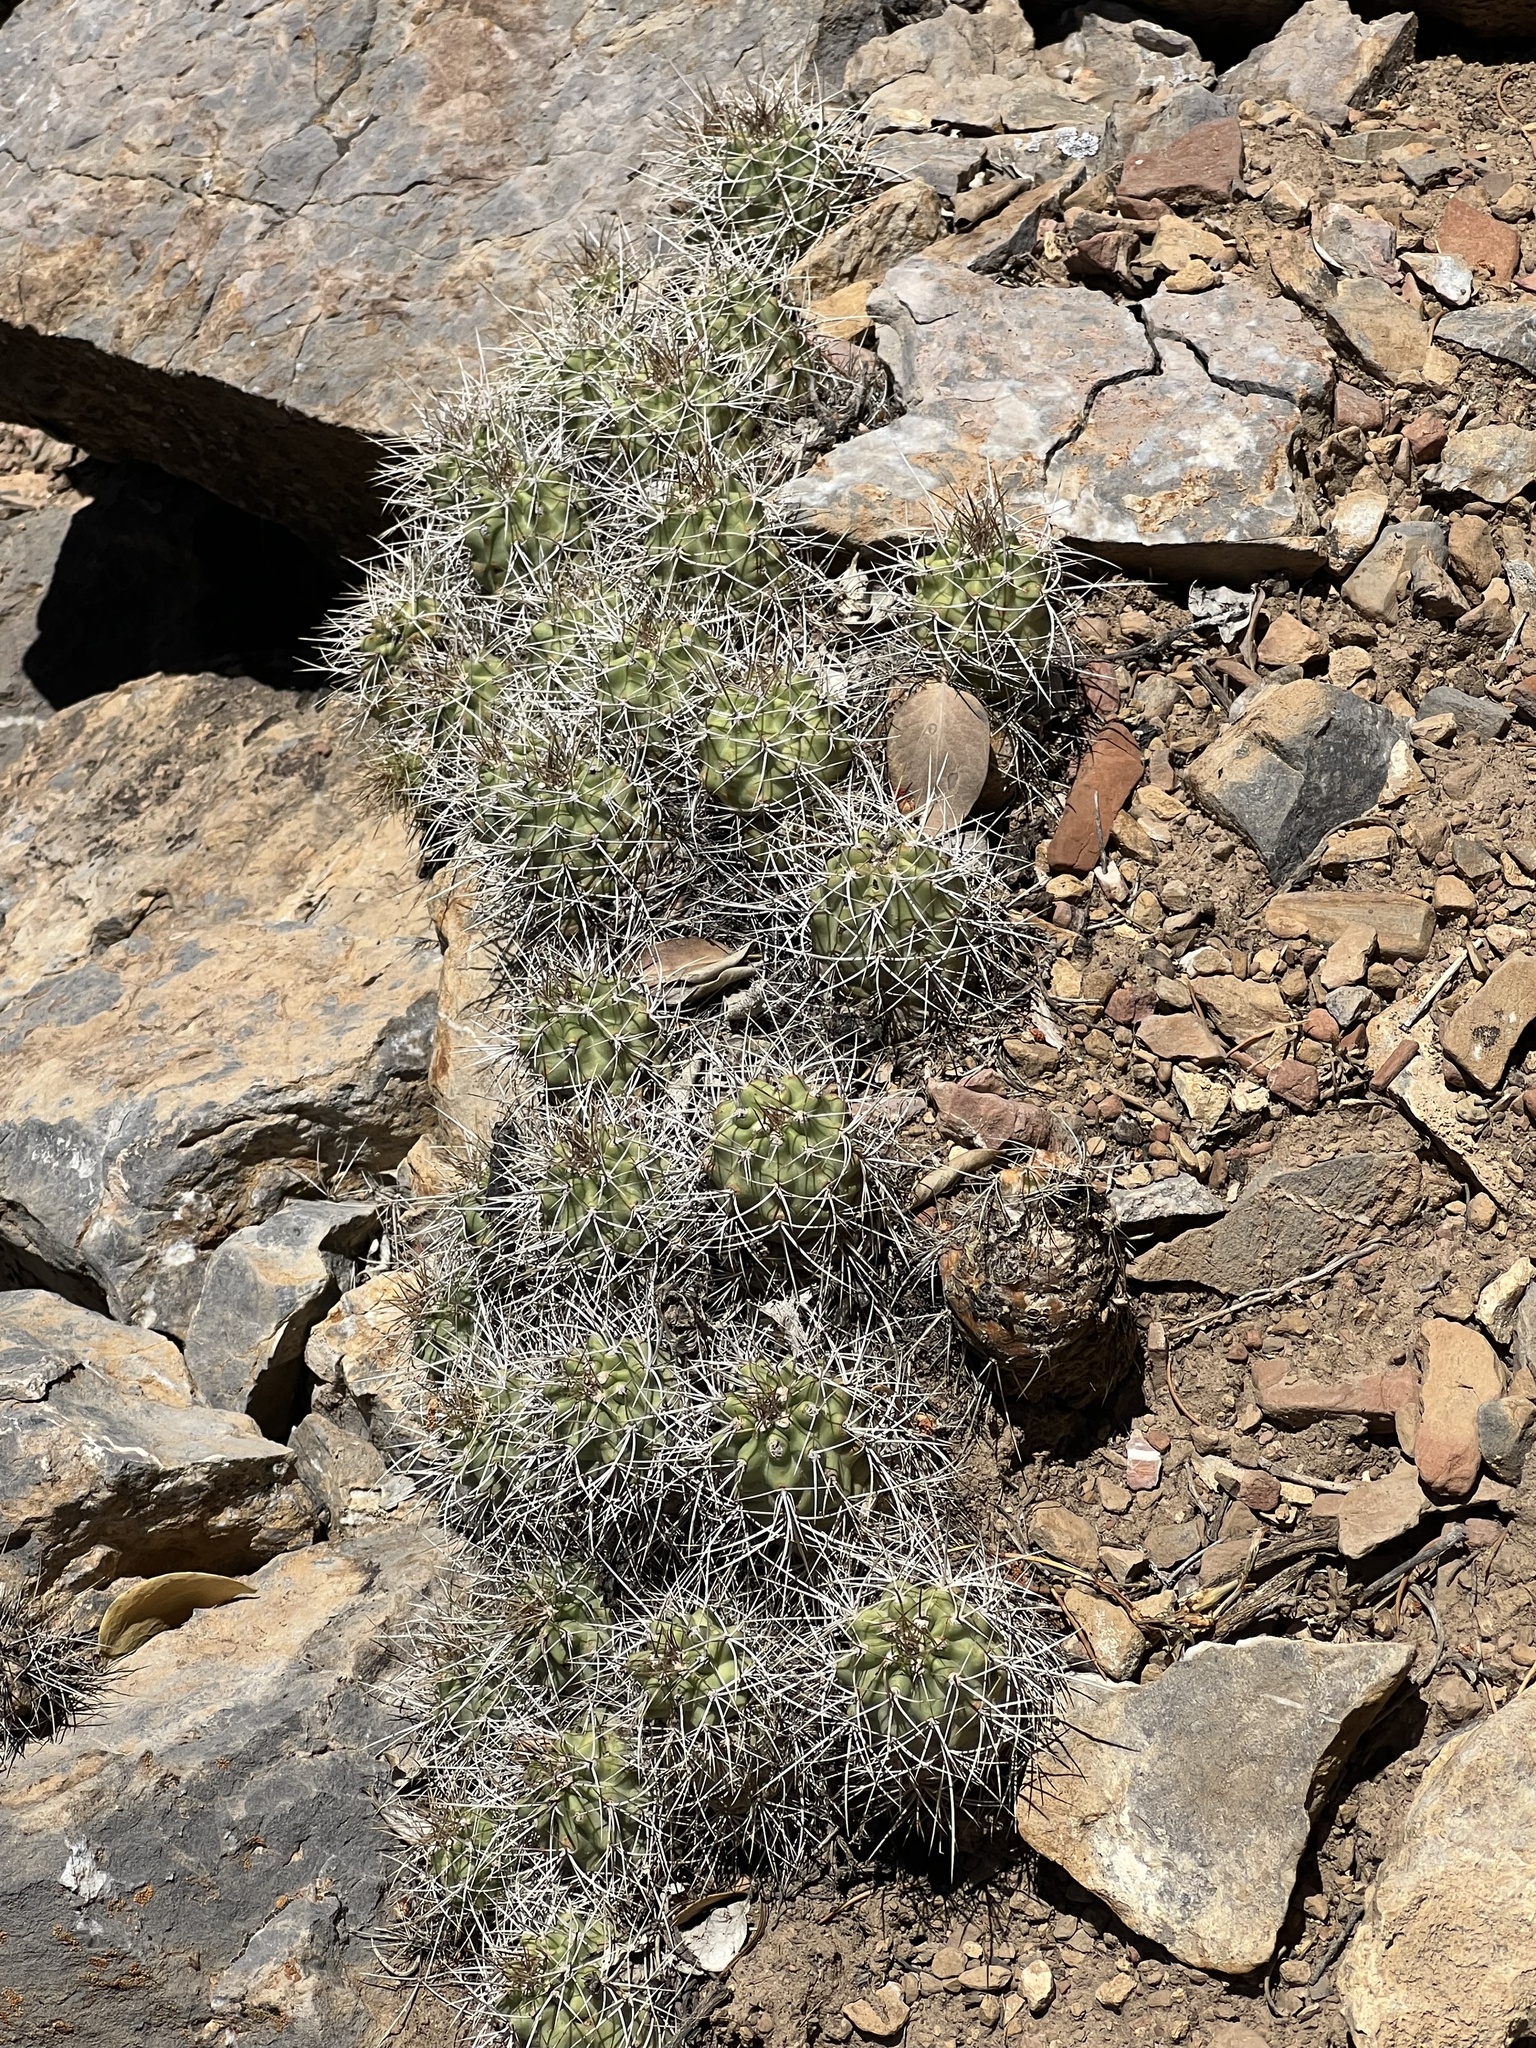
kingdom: Plantae
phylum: Tracheophyta
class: Magnoliopsida
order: Caryophyllales
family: Cactaceae
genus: Echinocereus
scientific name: Echinocereus triglochidiatus
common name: Claretcup hedgehog
